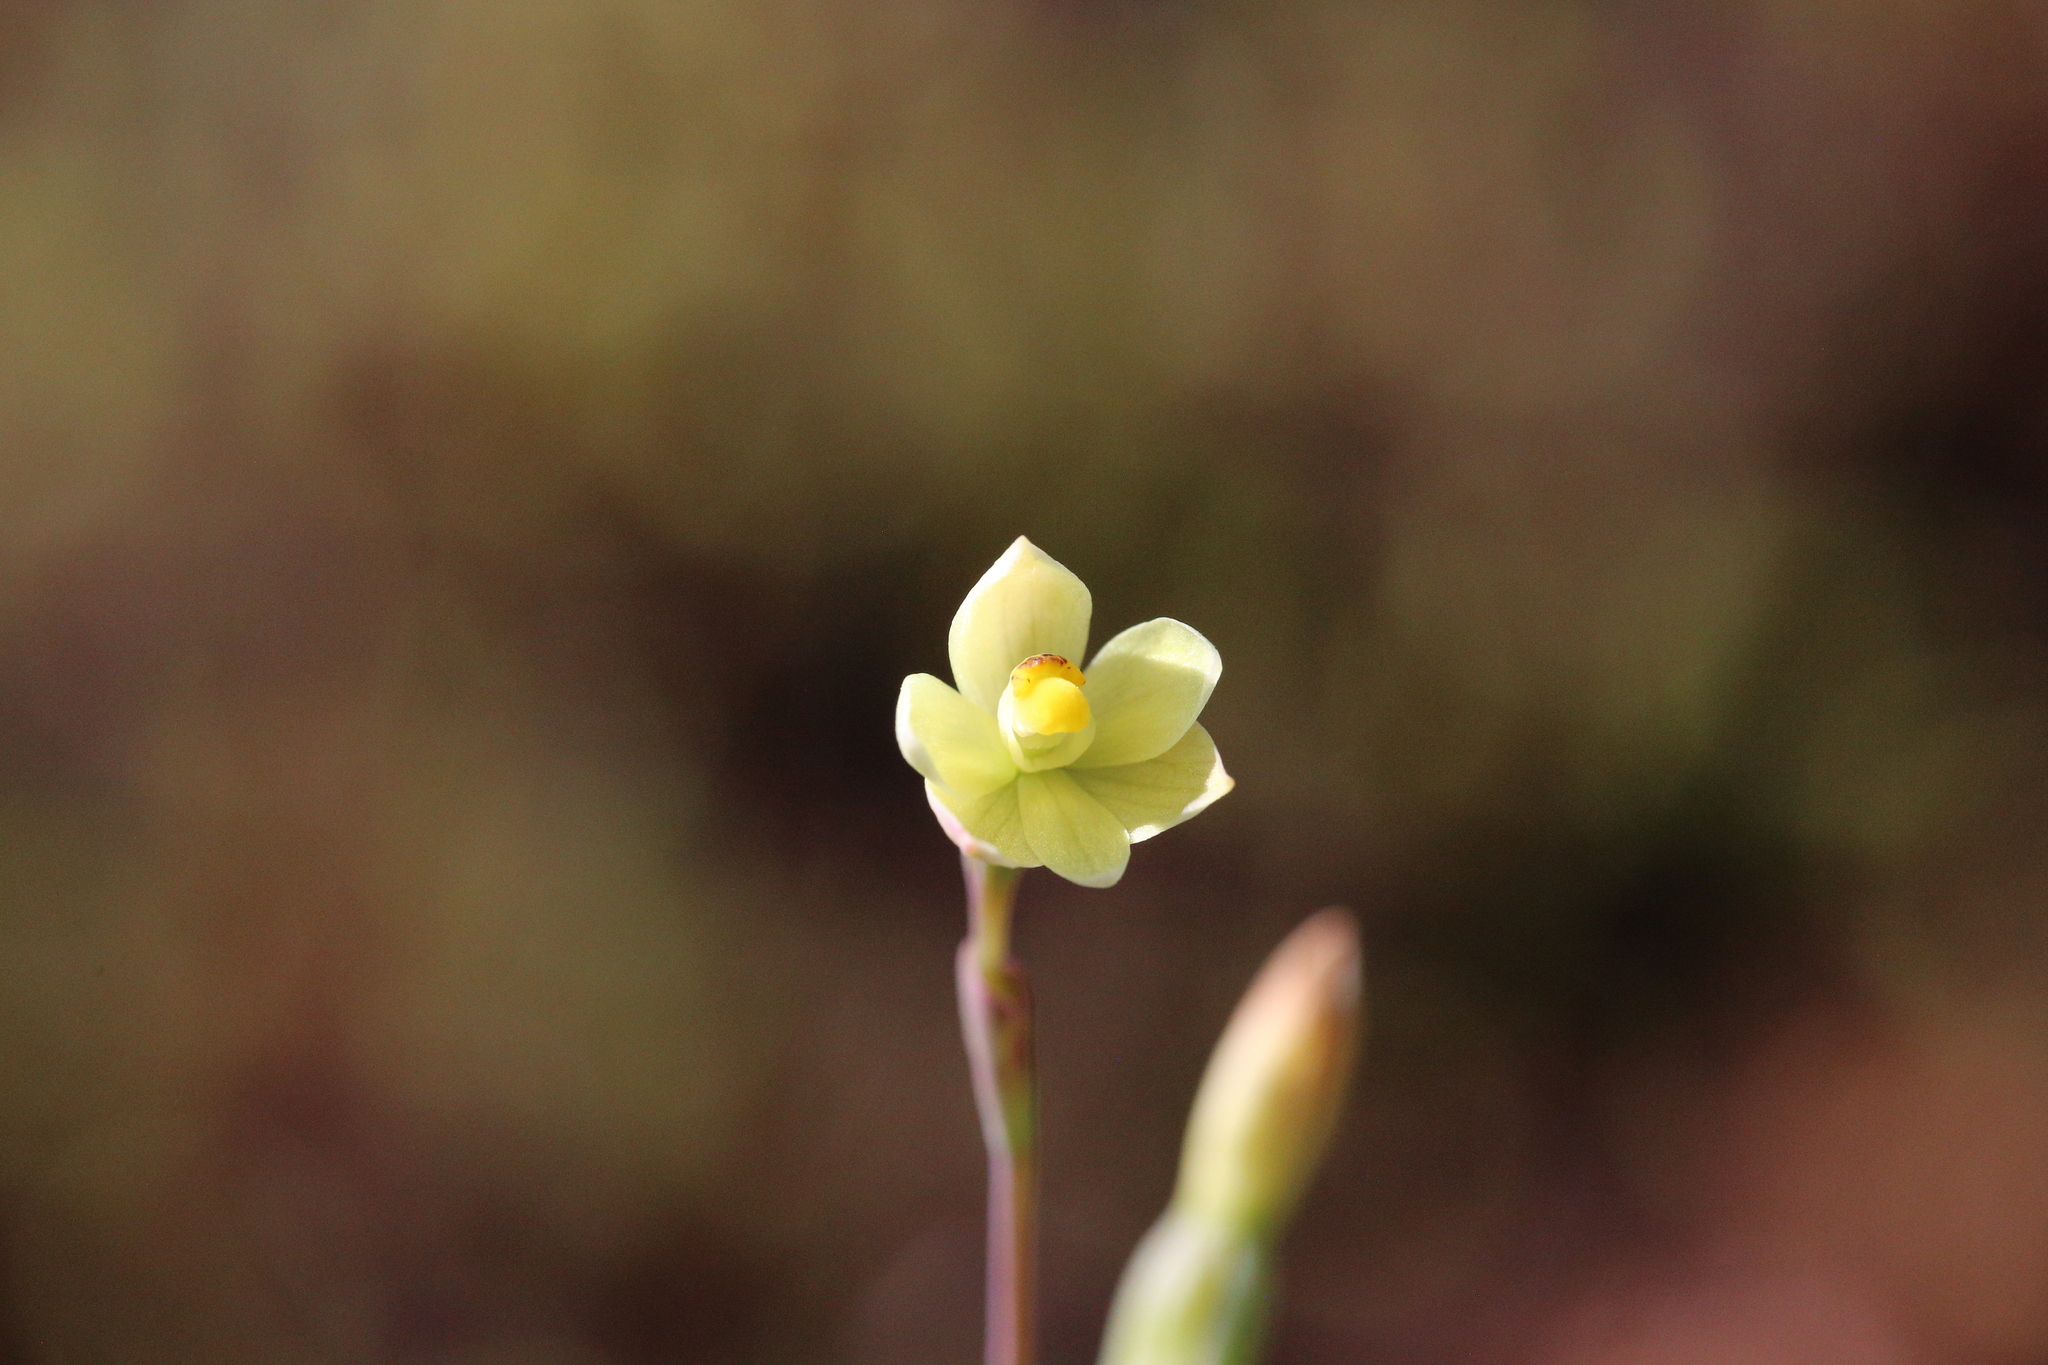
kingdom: Plantae
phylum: Tracheophyta
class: Liliopsida
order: Asparagales
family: Orchidaceae
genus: Thelymitra
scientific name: Thelymitra flexuosa
